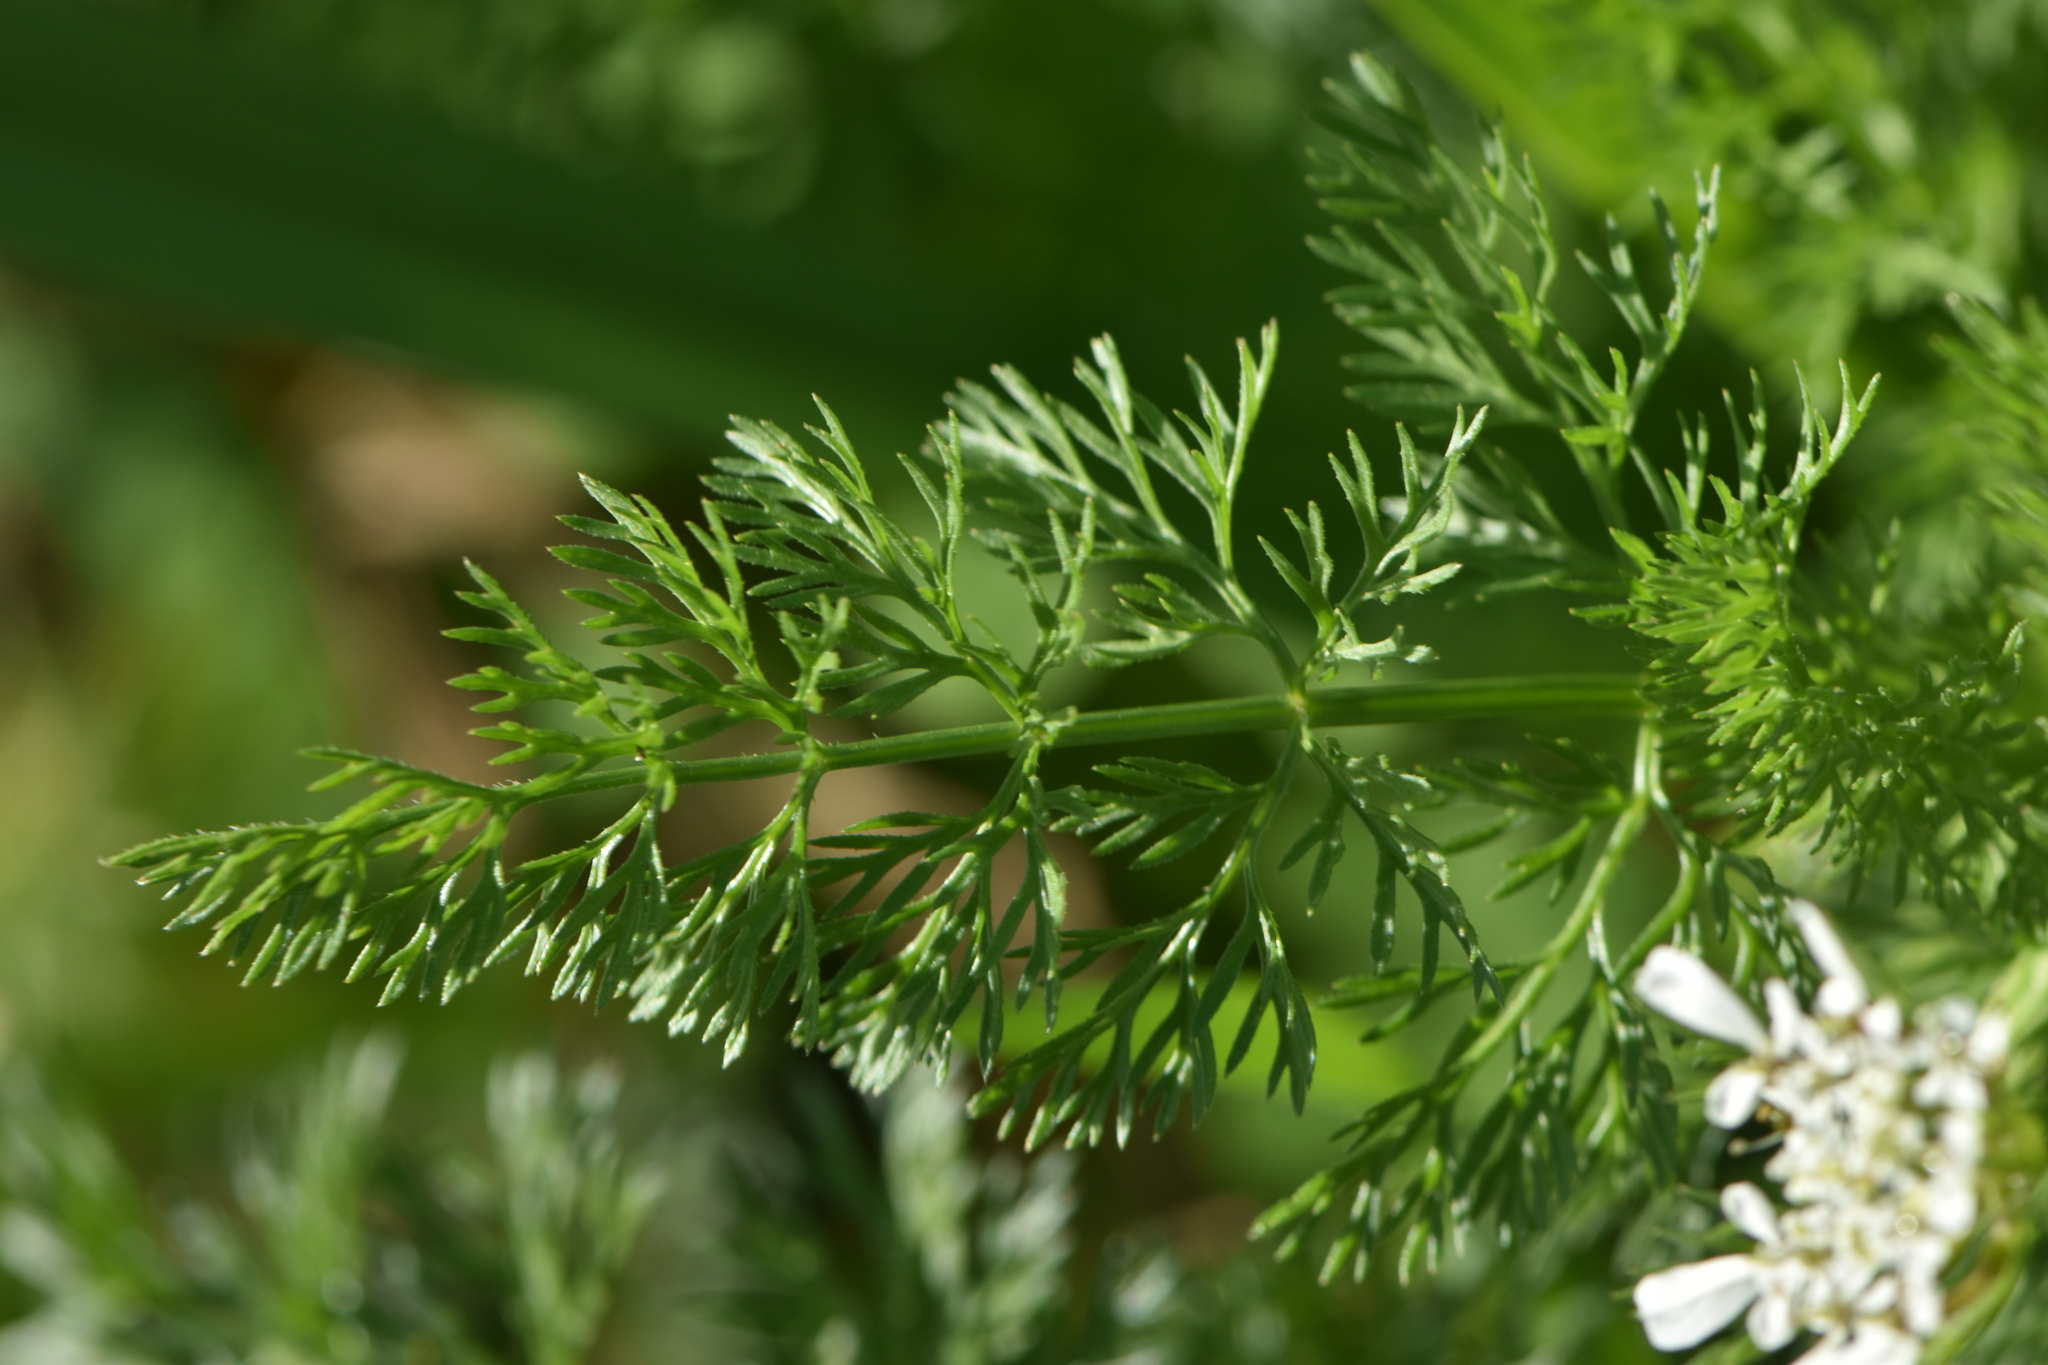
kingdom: Plantae
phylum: Tracheophyta
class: Magnoliopsida
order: Apiales
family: Apiaceae
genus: Scandix
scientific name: Scandix pecten-veneris
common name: Shepherd's-needle
